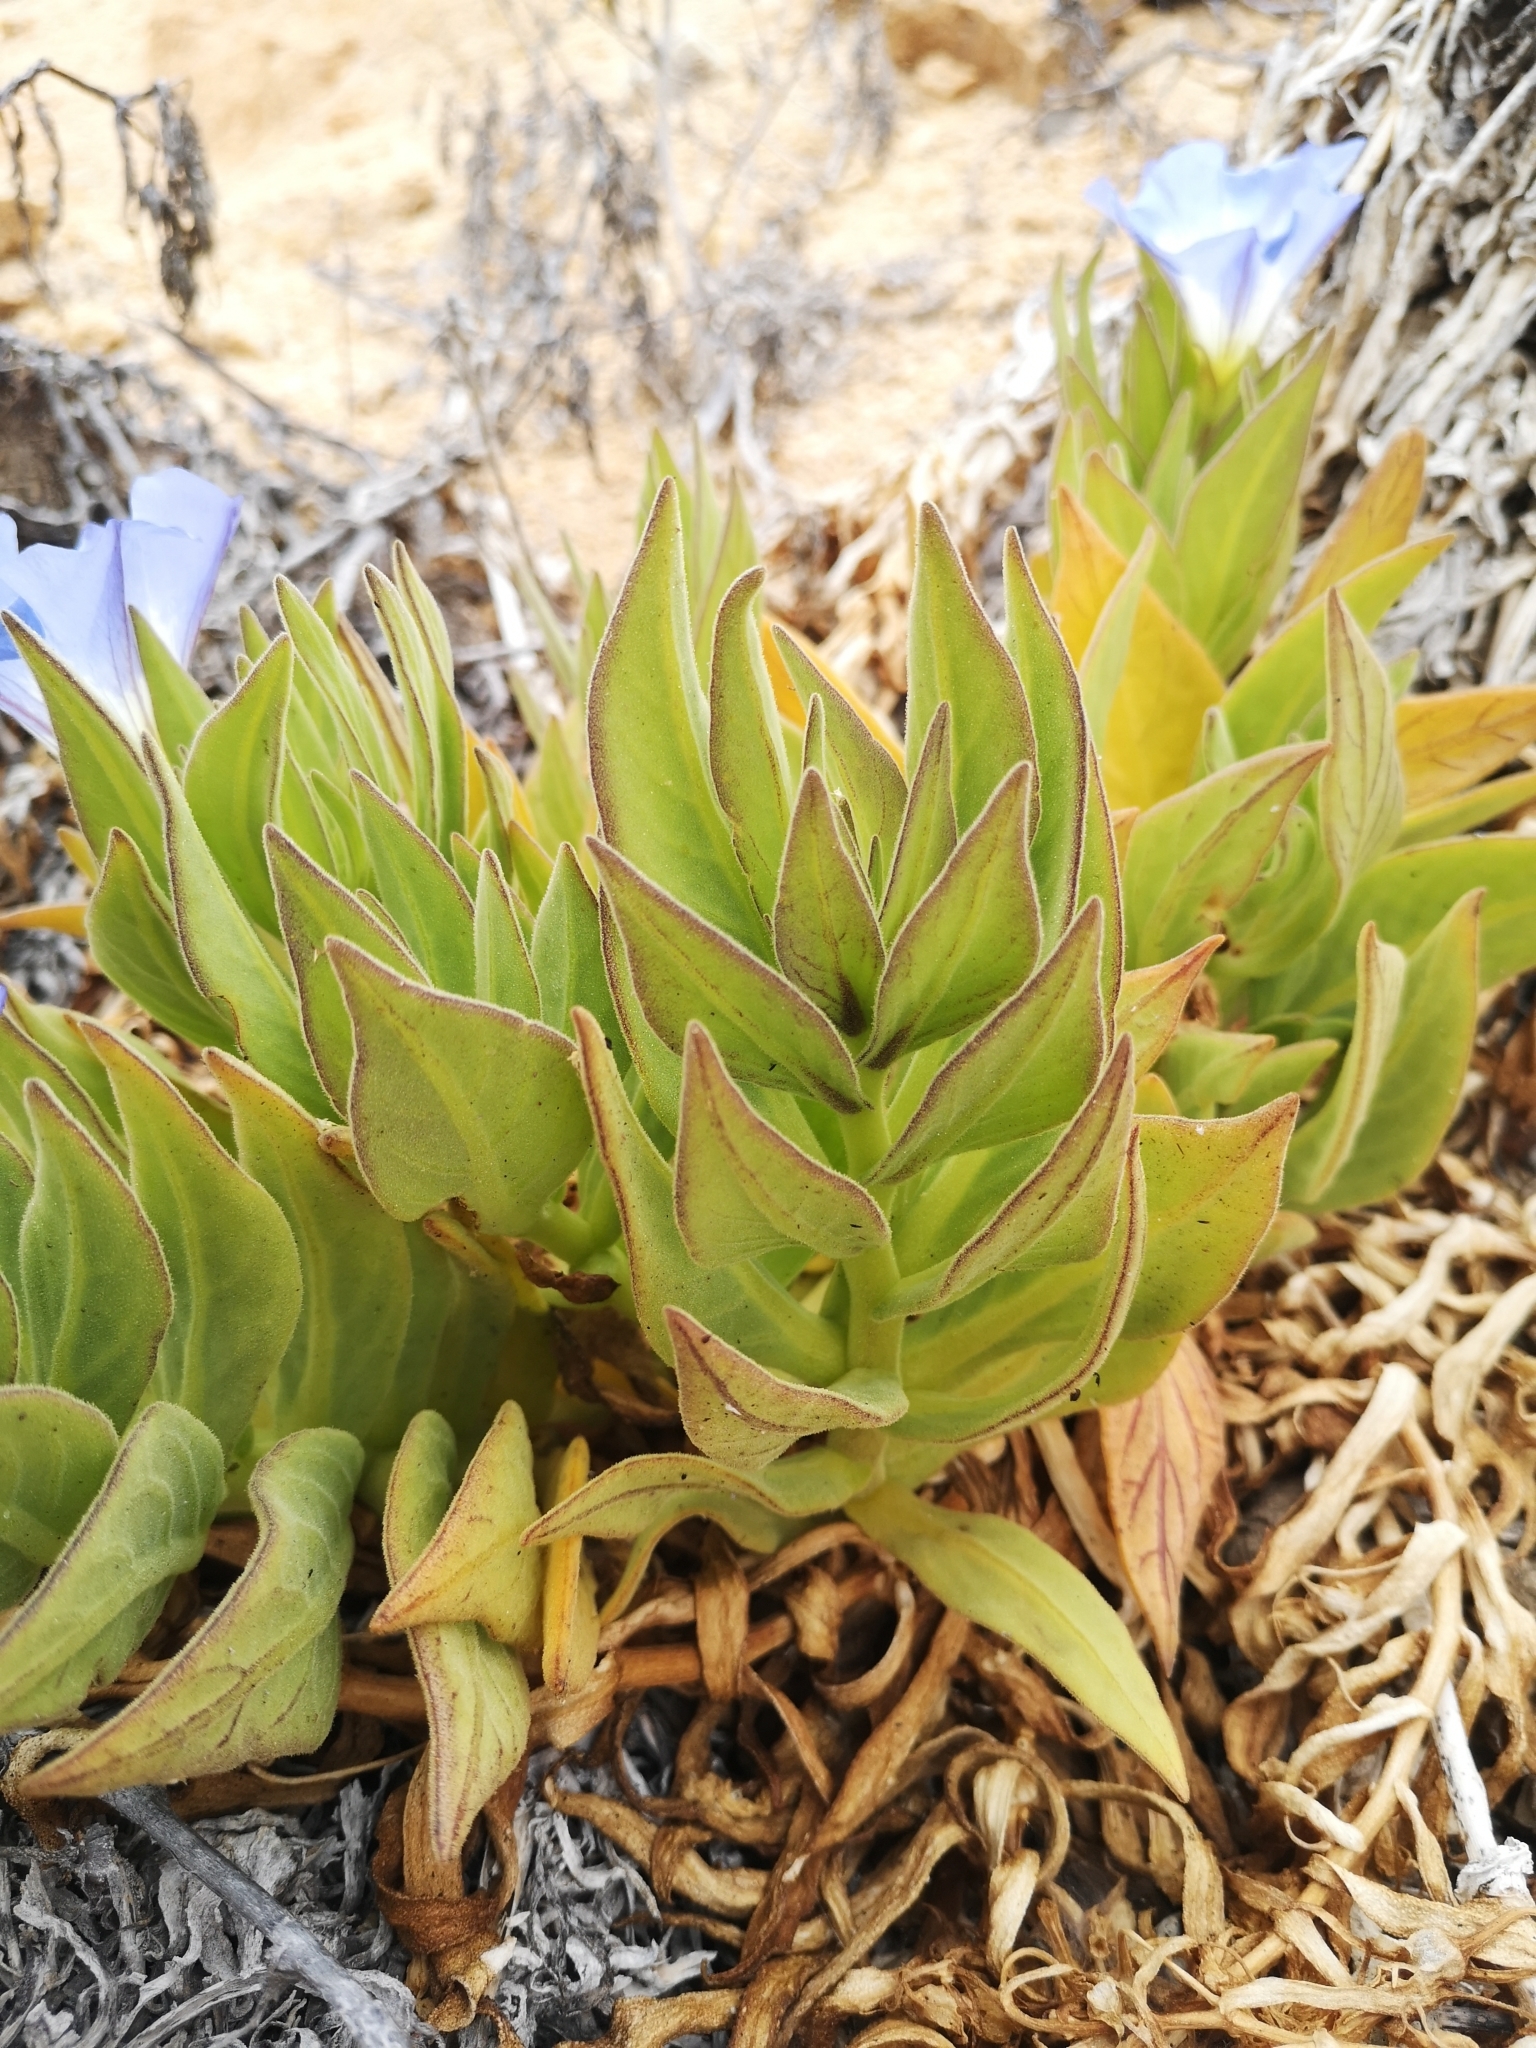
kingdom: Plantae
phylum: Tracheophyta
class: Magnoliopsida
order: Solanales
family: Solanaceae
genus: Nolana
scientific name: Nolana rupicola
